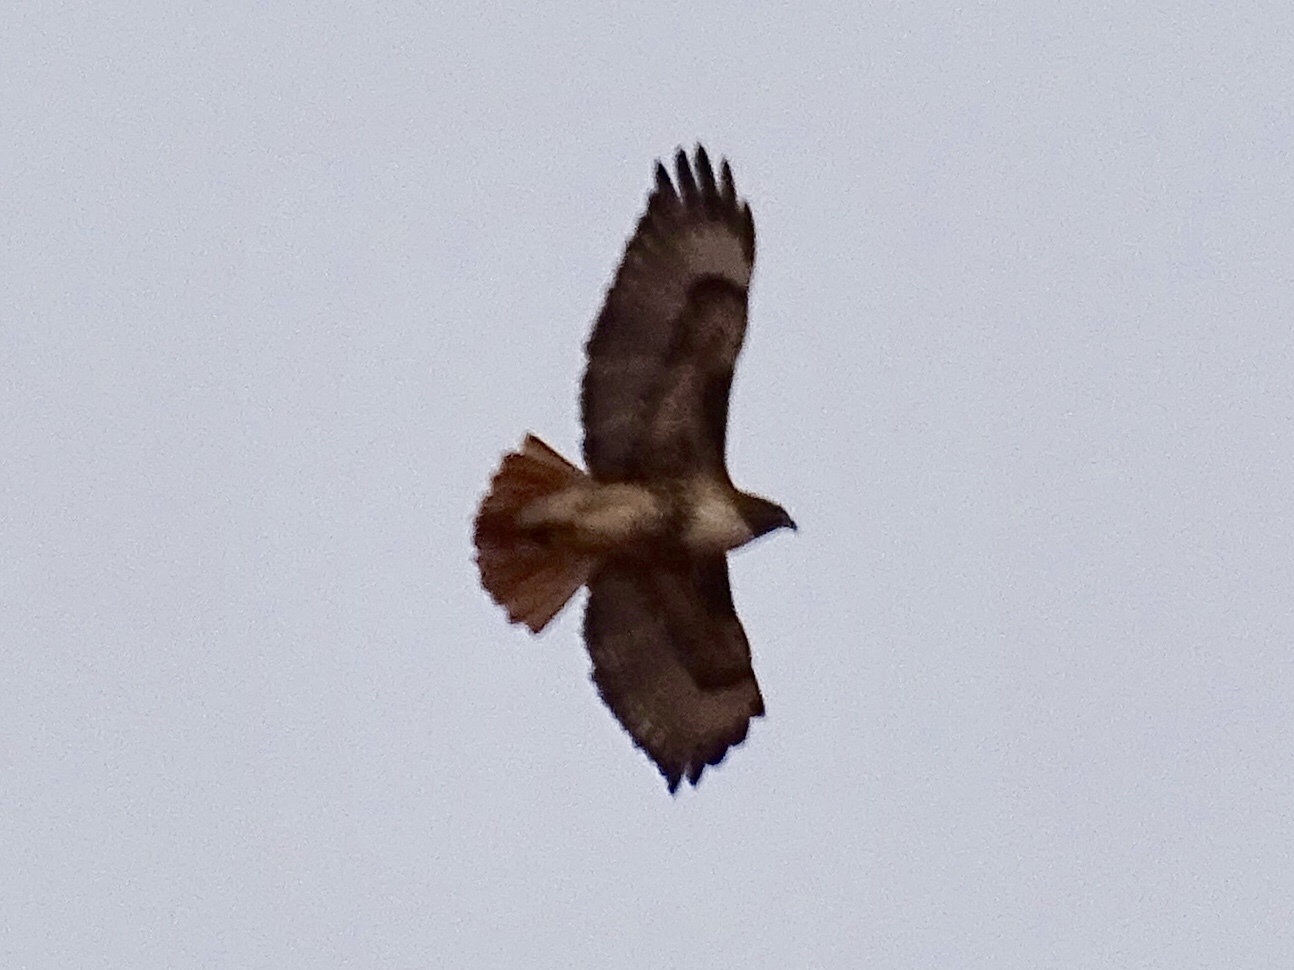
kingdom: Animalia
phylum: Chordata
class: Aves
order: Accipitriformes
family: Accipitridae
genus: Buteo
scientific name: Buteo jamaicensis
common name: Red-tailed hawk
